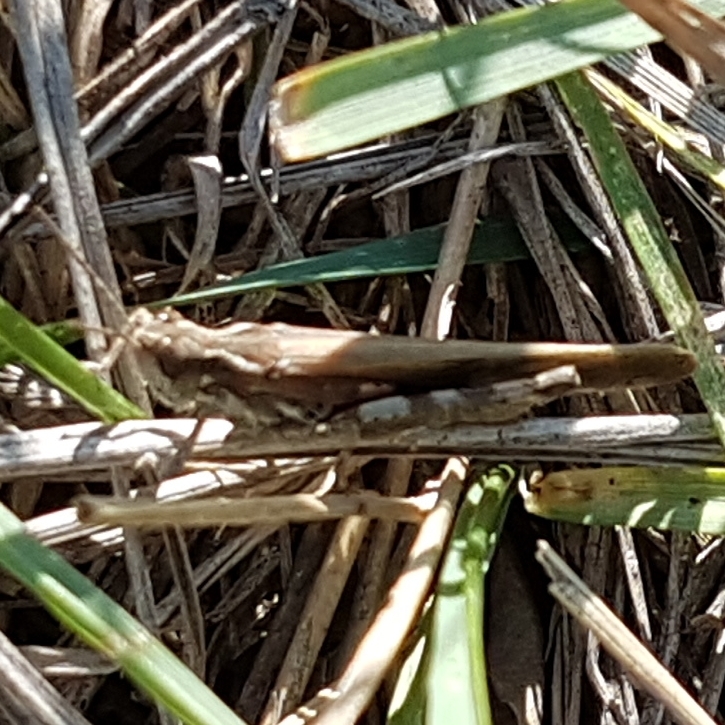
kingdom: Animalia
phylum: Arthropoda
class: Insecta
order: Orthoptera
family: Acrididae
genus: Aiolopus
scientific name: Aiolopus puissanti
